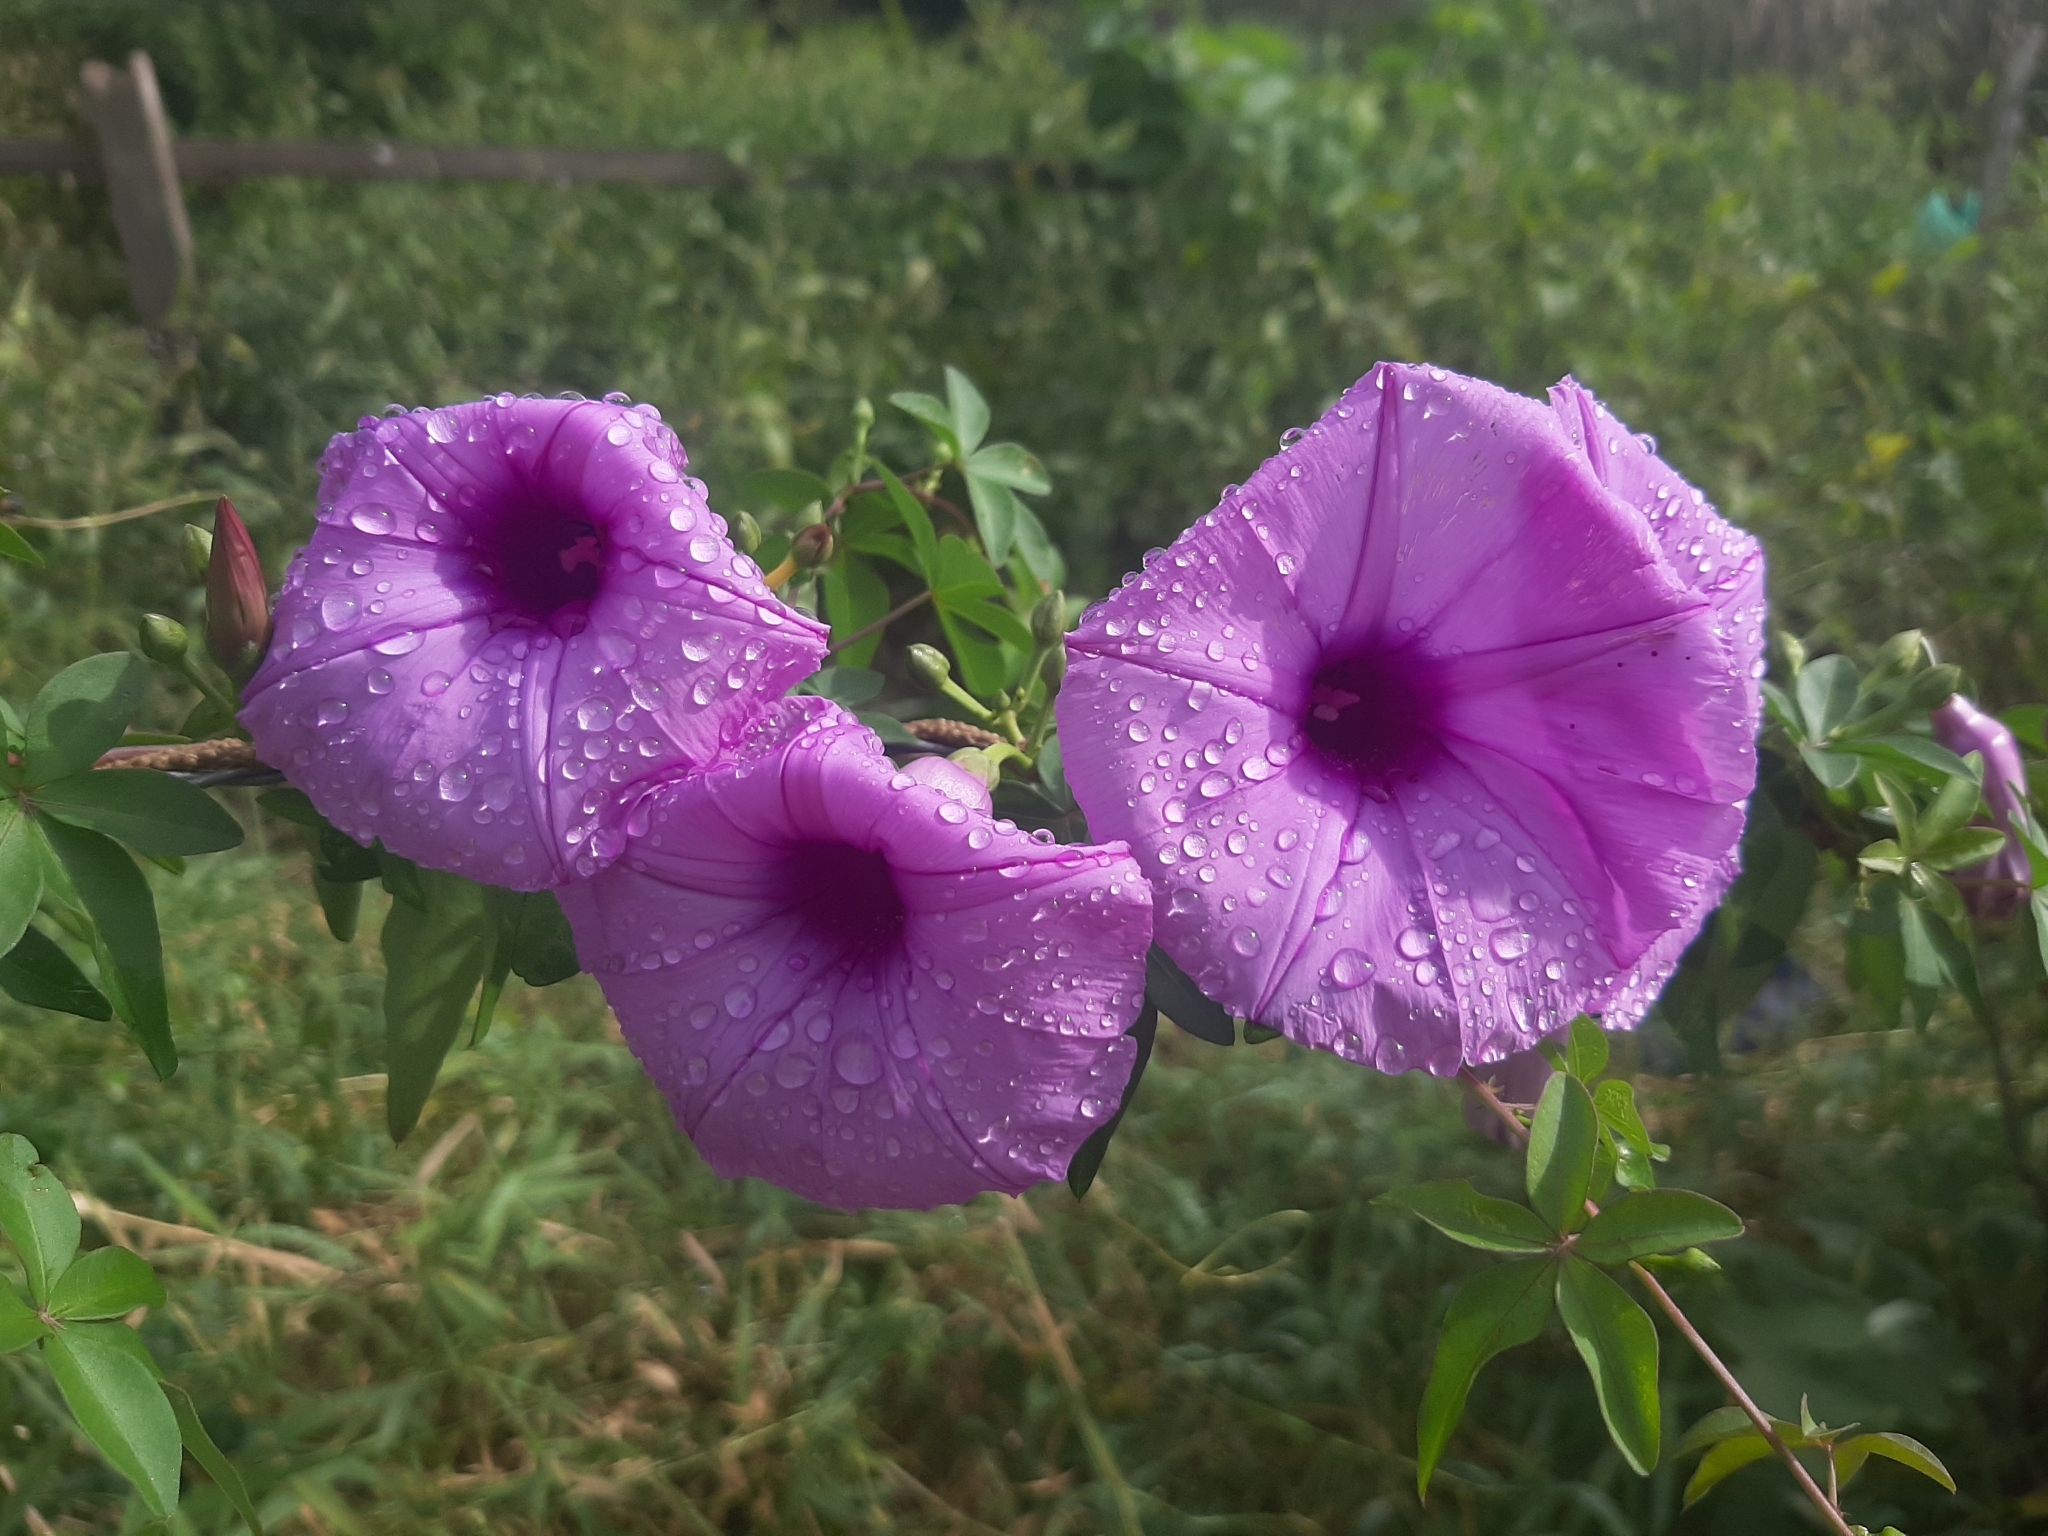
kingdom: Plantae
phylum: Tracheophyta
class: Magnoliopsida
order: Solanales
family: Convolvulaceae
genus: Ipomoea
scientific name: Ipomoea cairica
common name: Mile a minute vine
